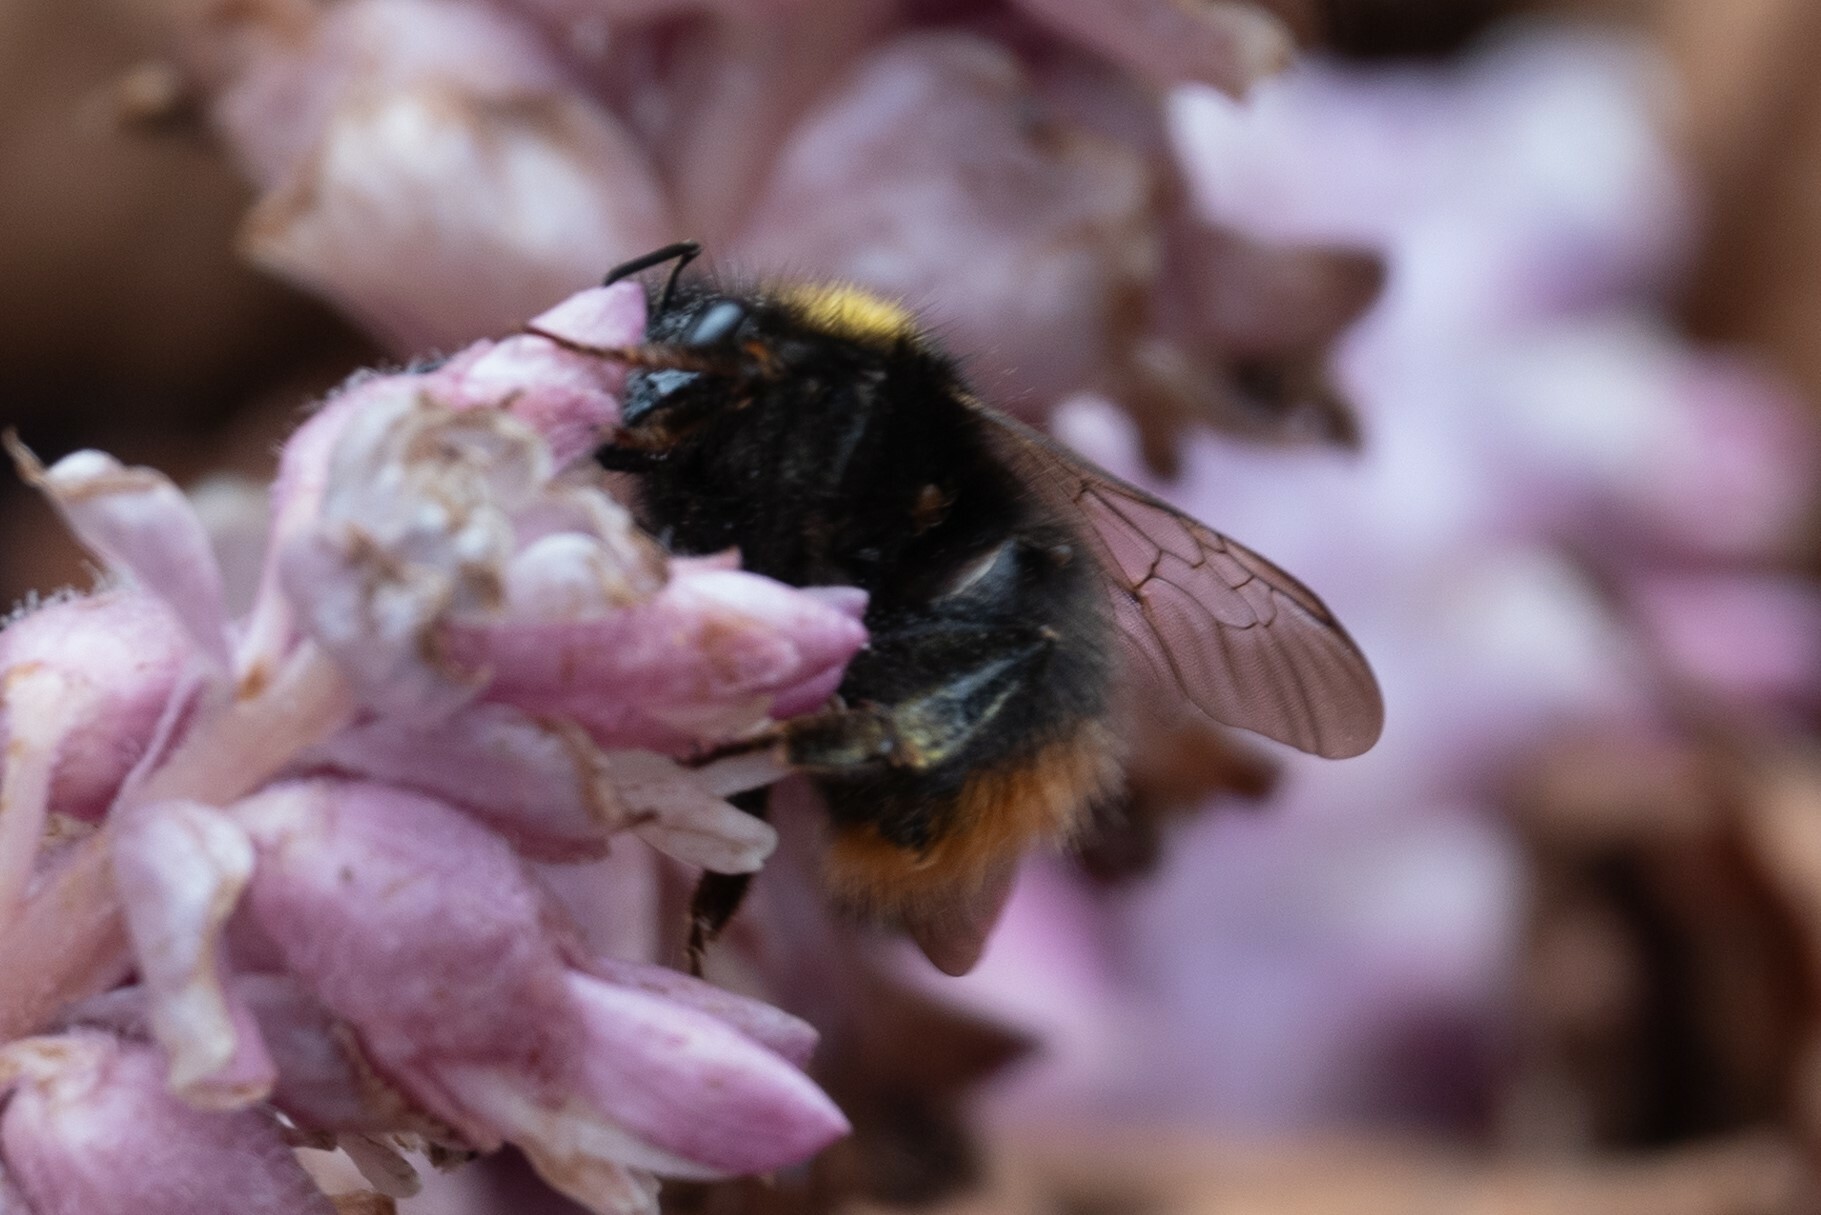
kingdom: Animalia
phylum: Arthropoda
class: Insecta
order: Hymenoptera
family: Apidae
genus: Bombus
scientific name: Bombus pratorum
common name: Early humble-bee
